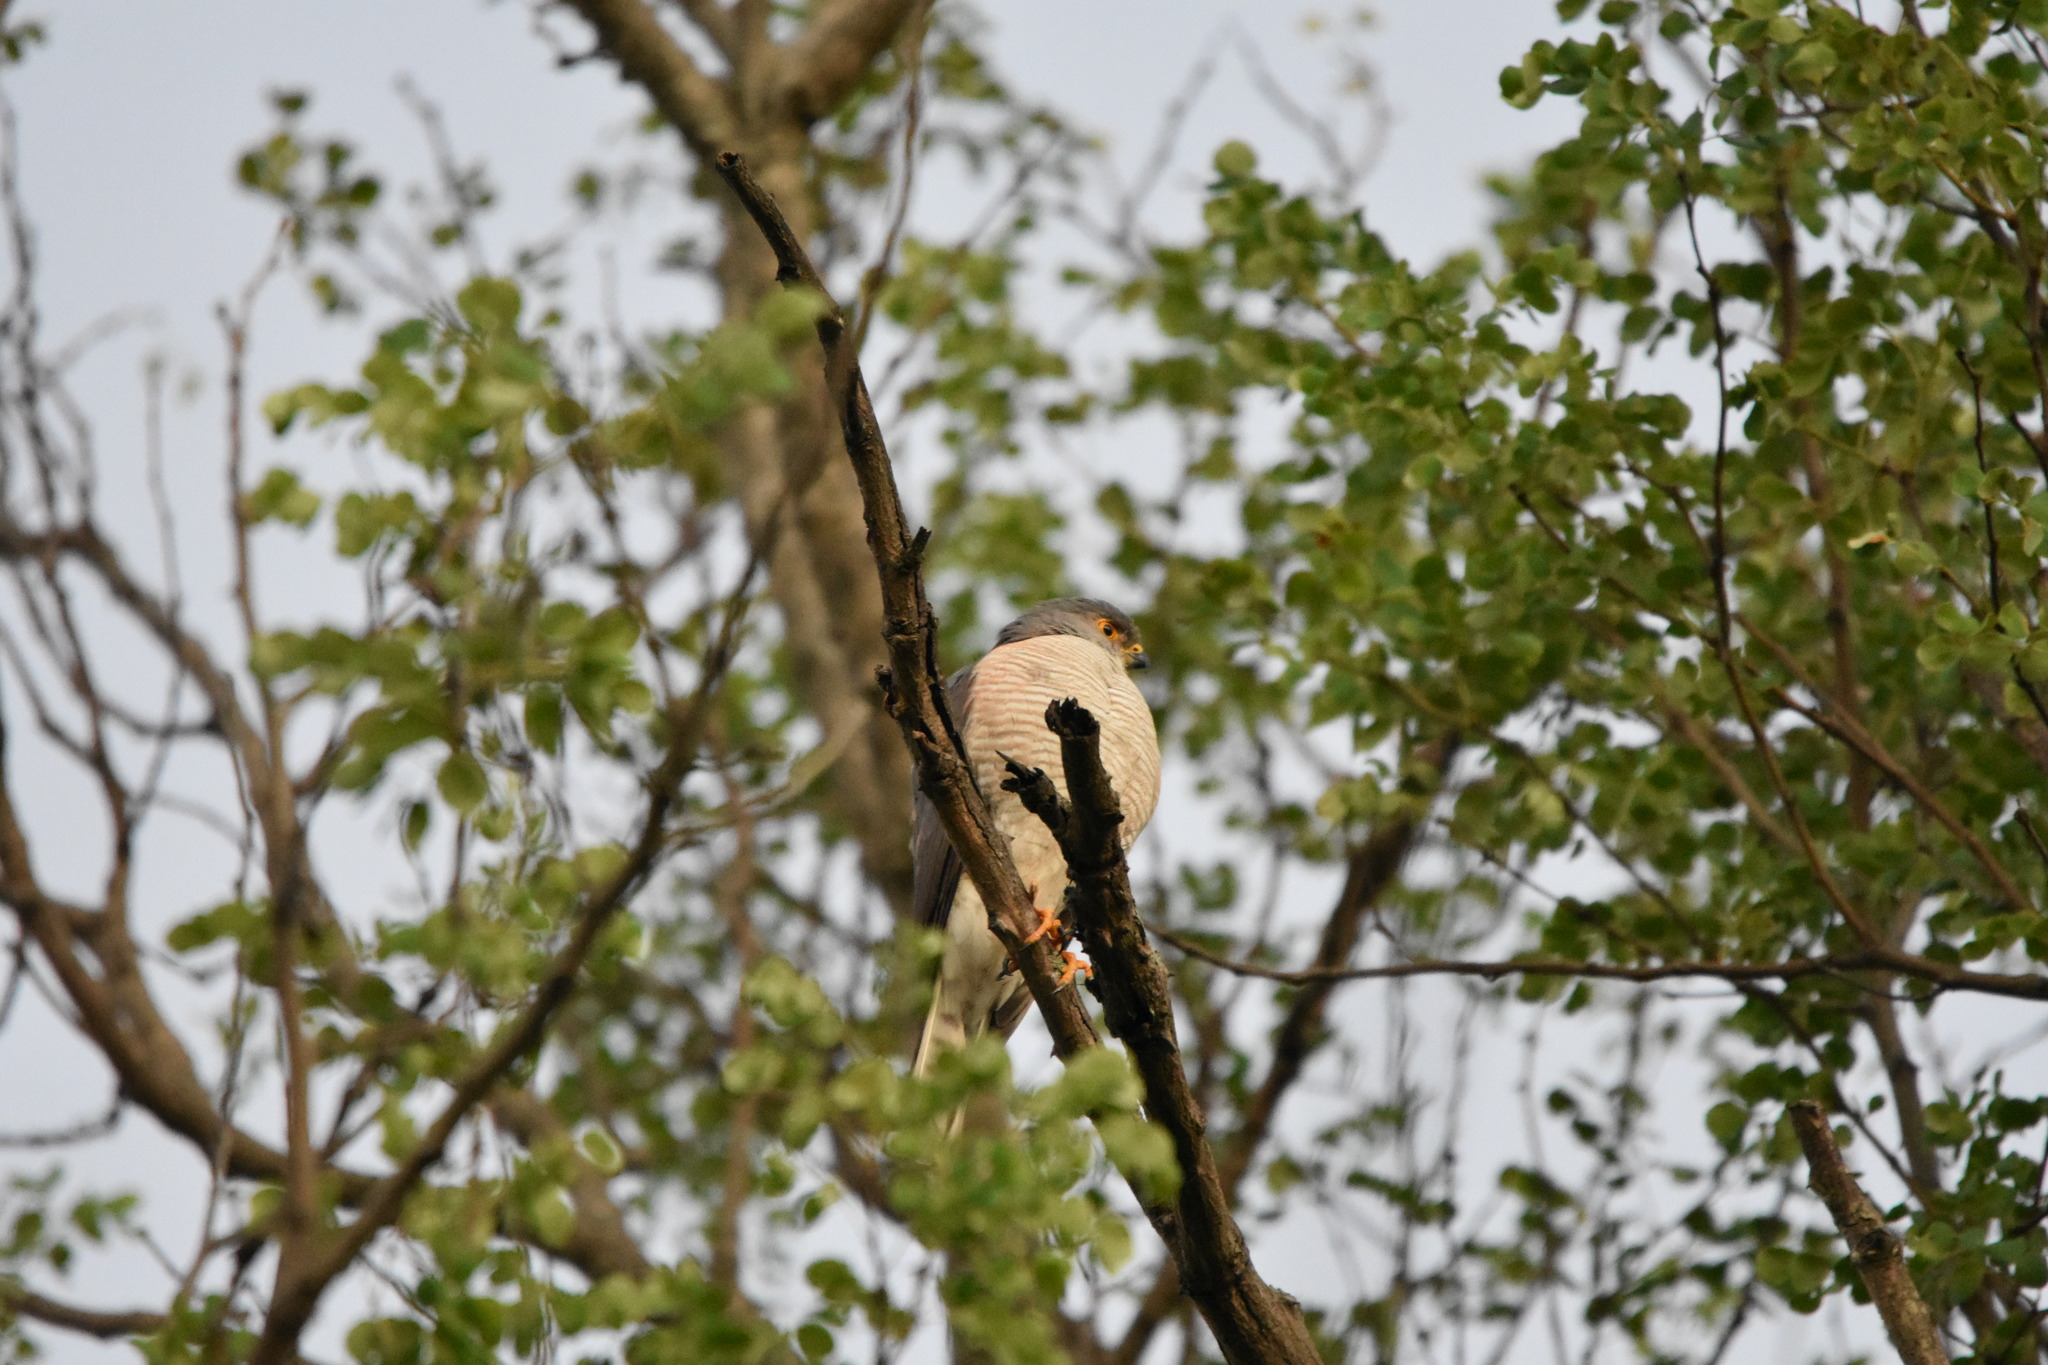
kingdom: Animalia
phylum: Chordata
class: Aves
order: Accipitriformes
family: Accipitridae
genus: Accipiter
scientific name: Accipiter minullus
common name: Little sparrowhawk
